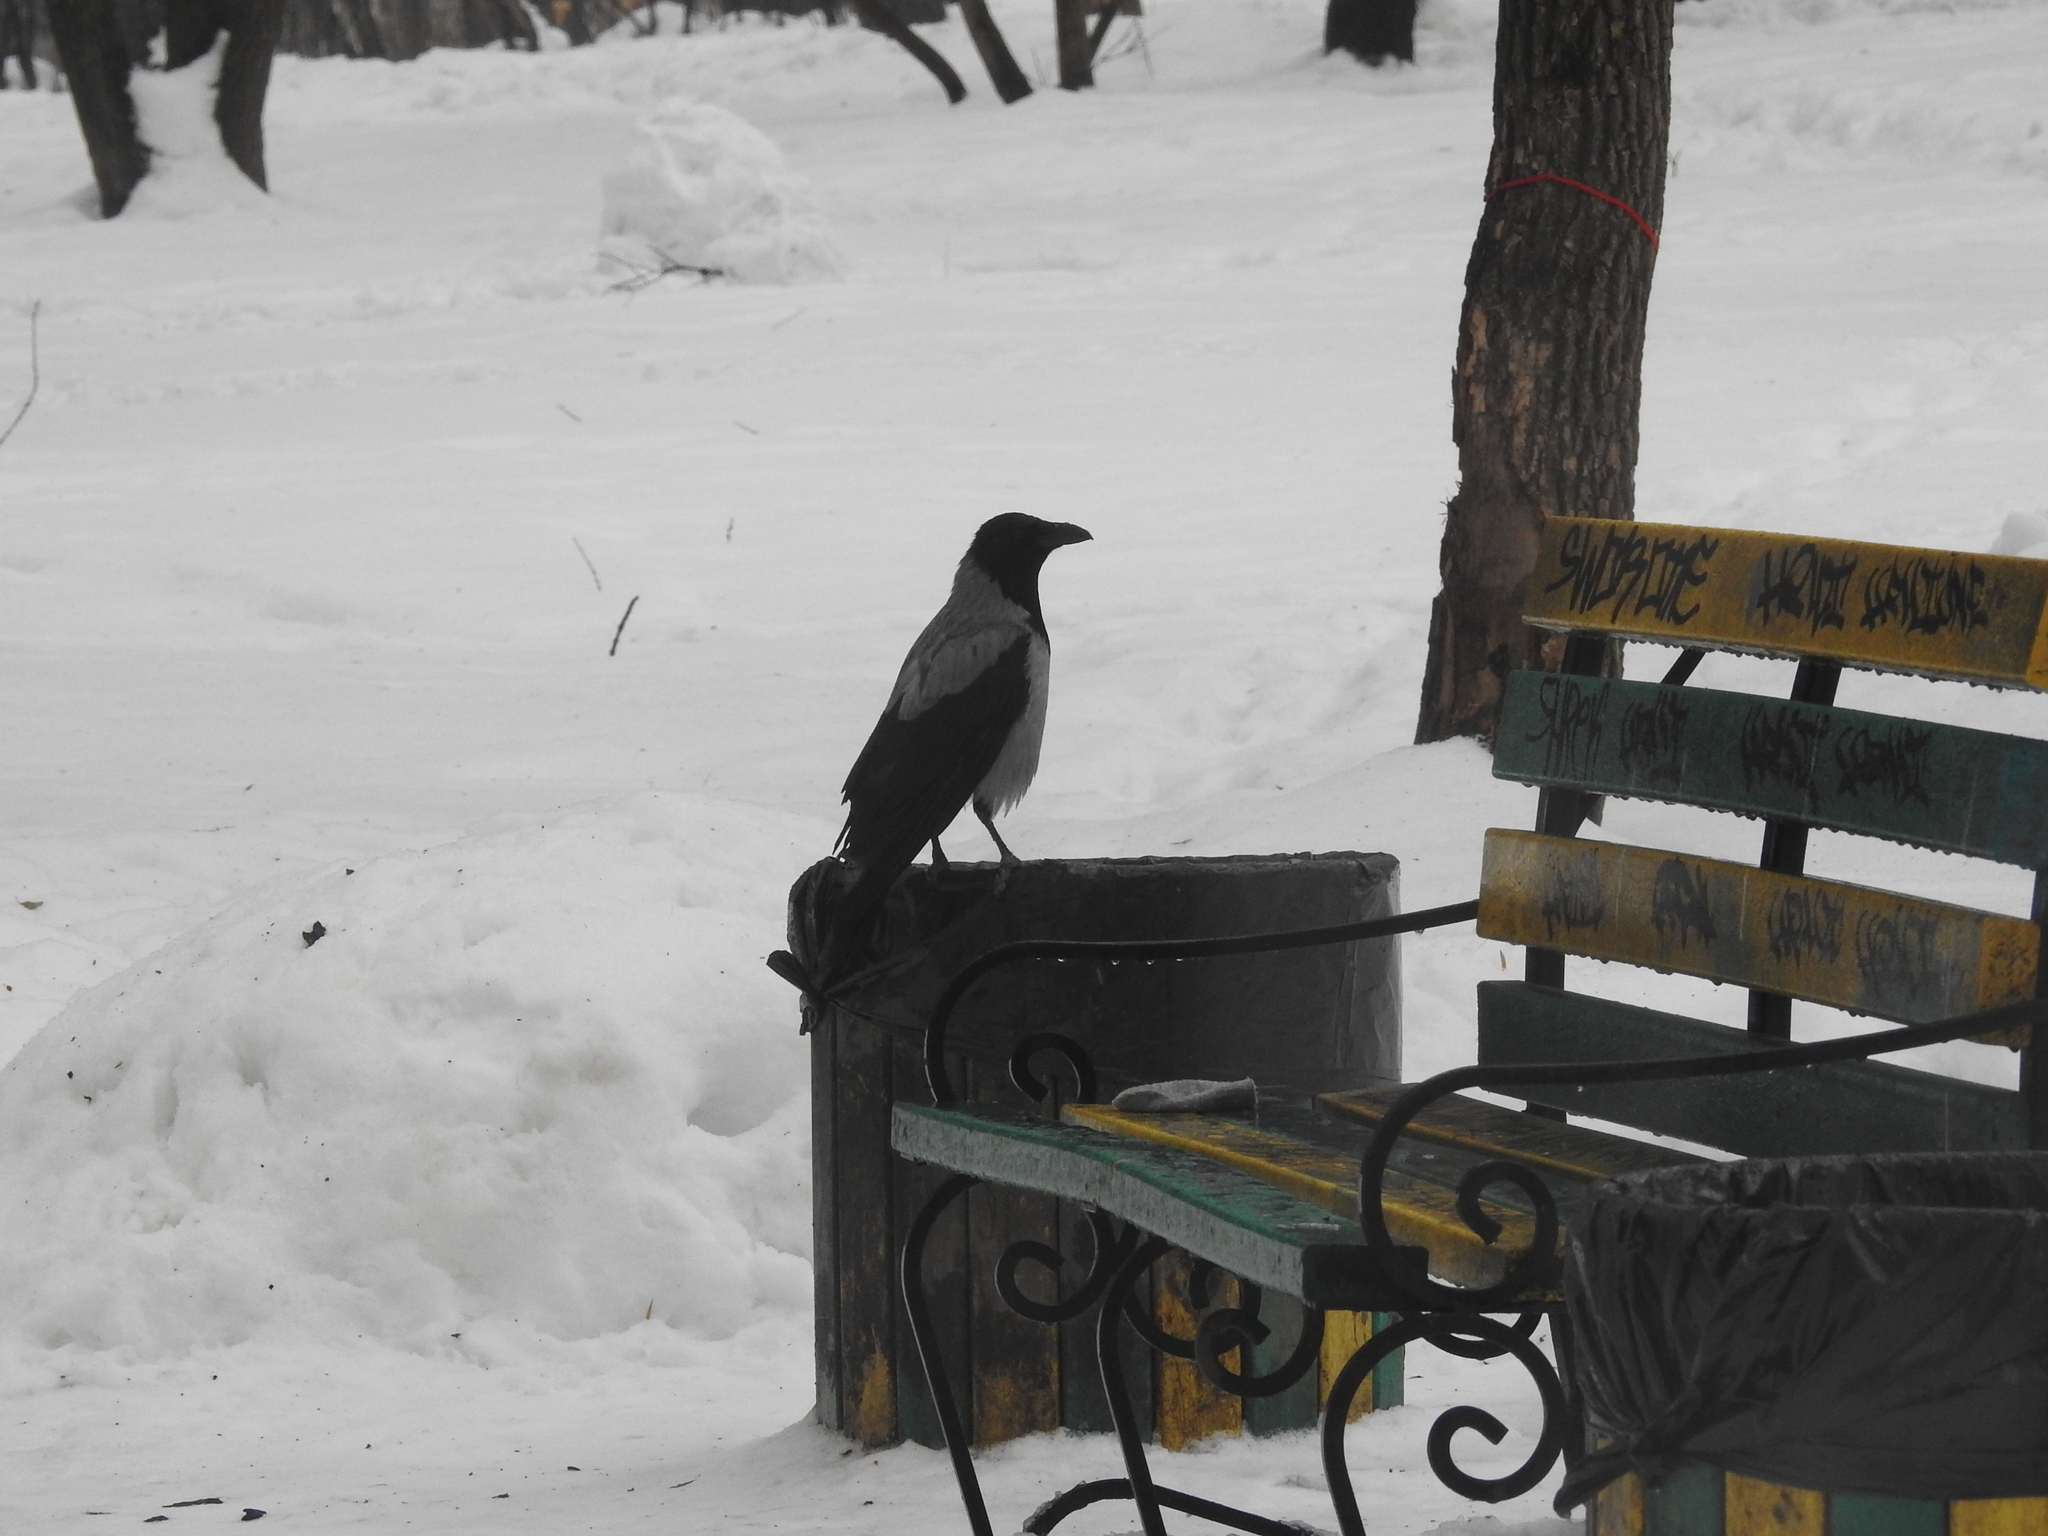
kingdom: Animalia
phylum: Chordata
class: Aves
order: Passeriformes
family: Corvidae
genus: Corvus
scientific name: Corvus cornix
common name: Hooded crow
